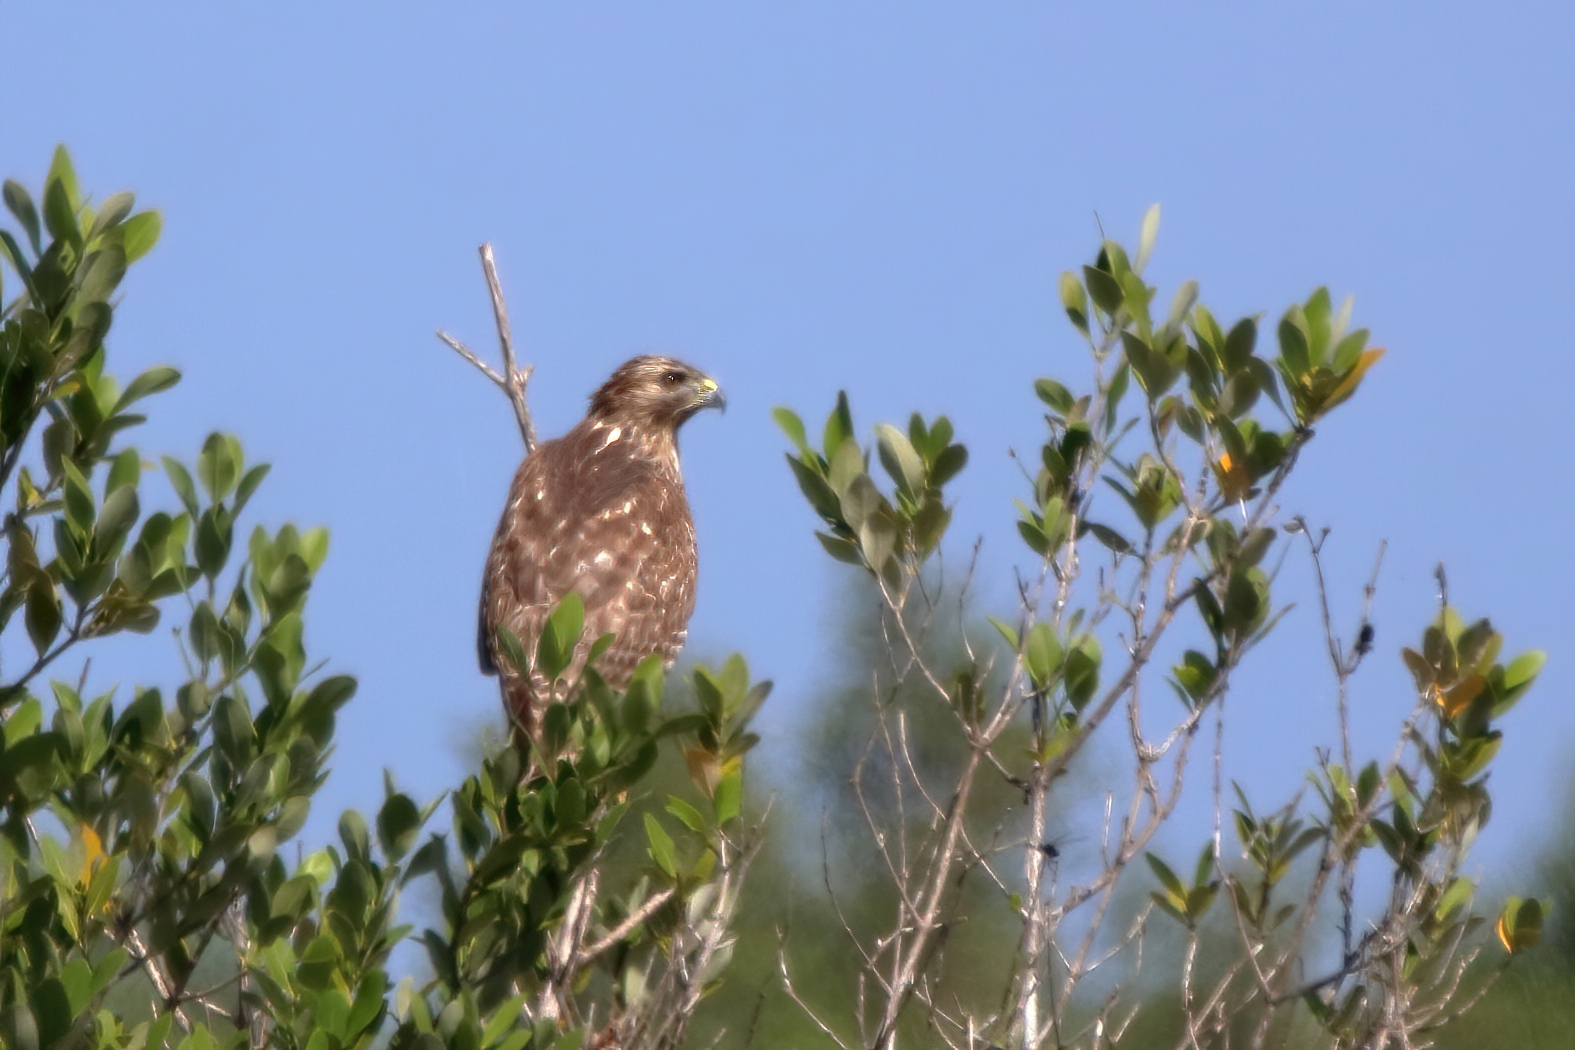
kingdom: Animalia
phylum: Chordata
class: Aves
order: Accipitriformes
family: Accipitridae
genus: Buteo
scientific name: Buteo lineatus
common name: Red-shouldered hawk
